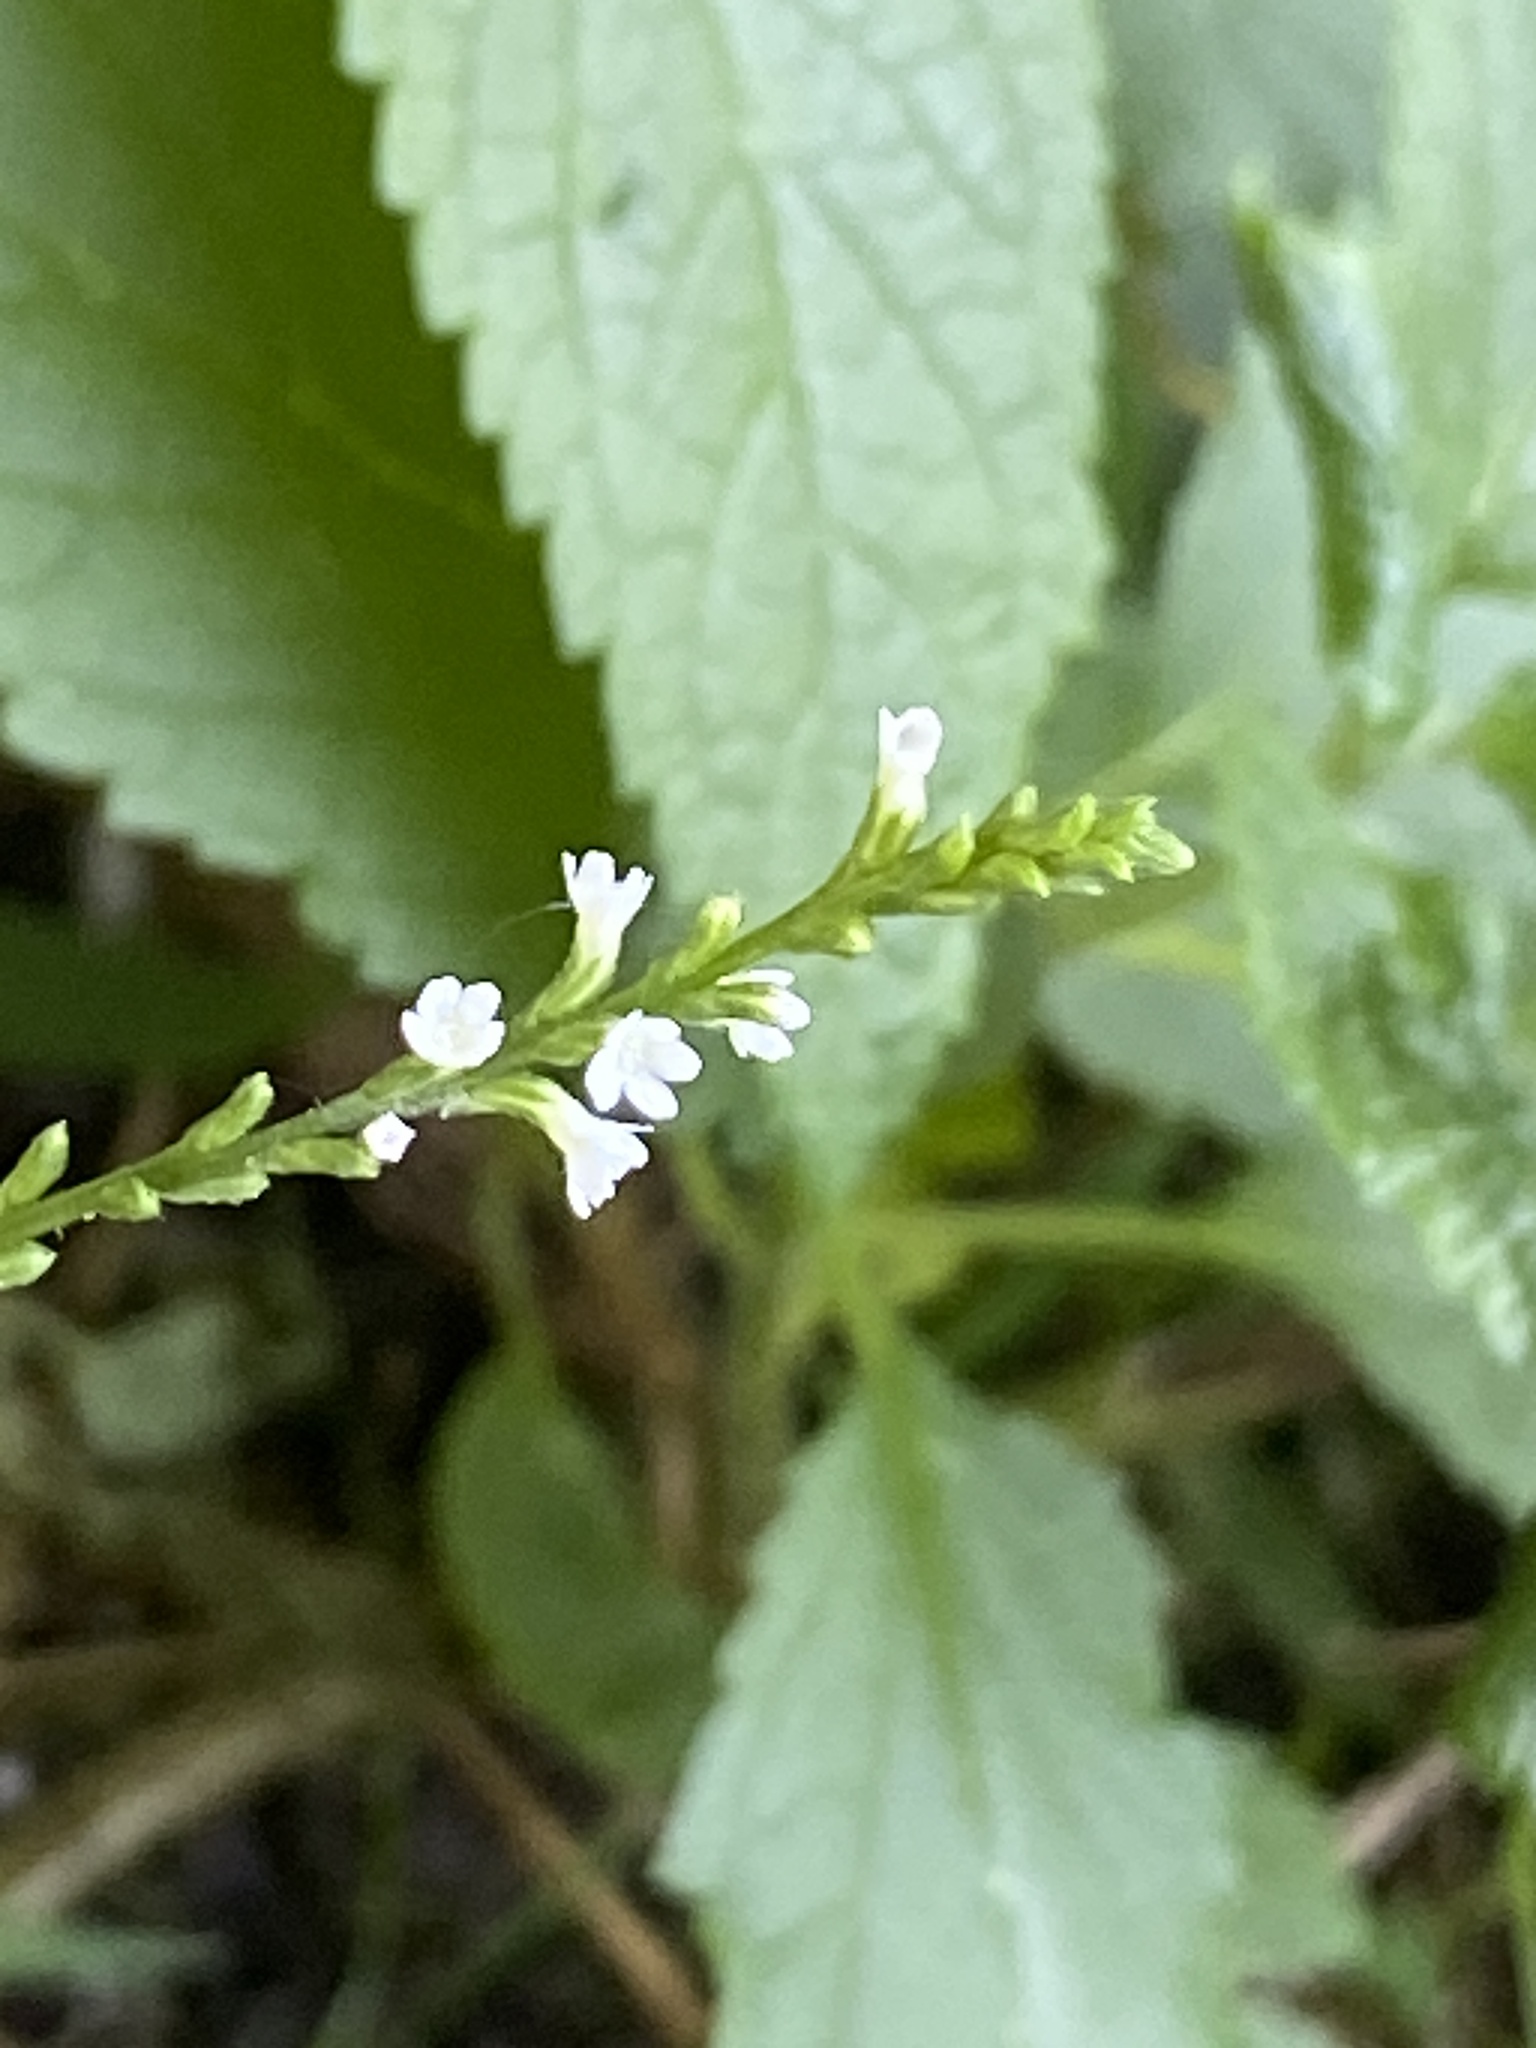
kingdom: Plantae
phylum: Tracheophyta
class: Magnoliopsida
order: Lamiales
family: Verbenaceae
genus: Verbena
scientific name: Verbena urticifolia
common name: Nettle-leaved vervain
